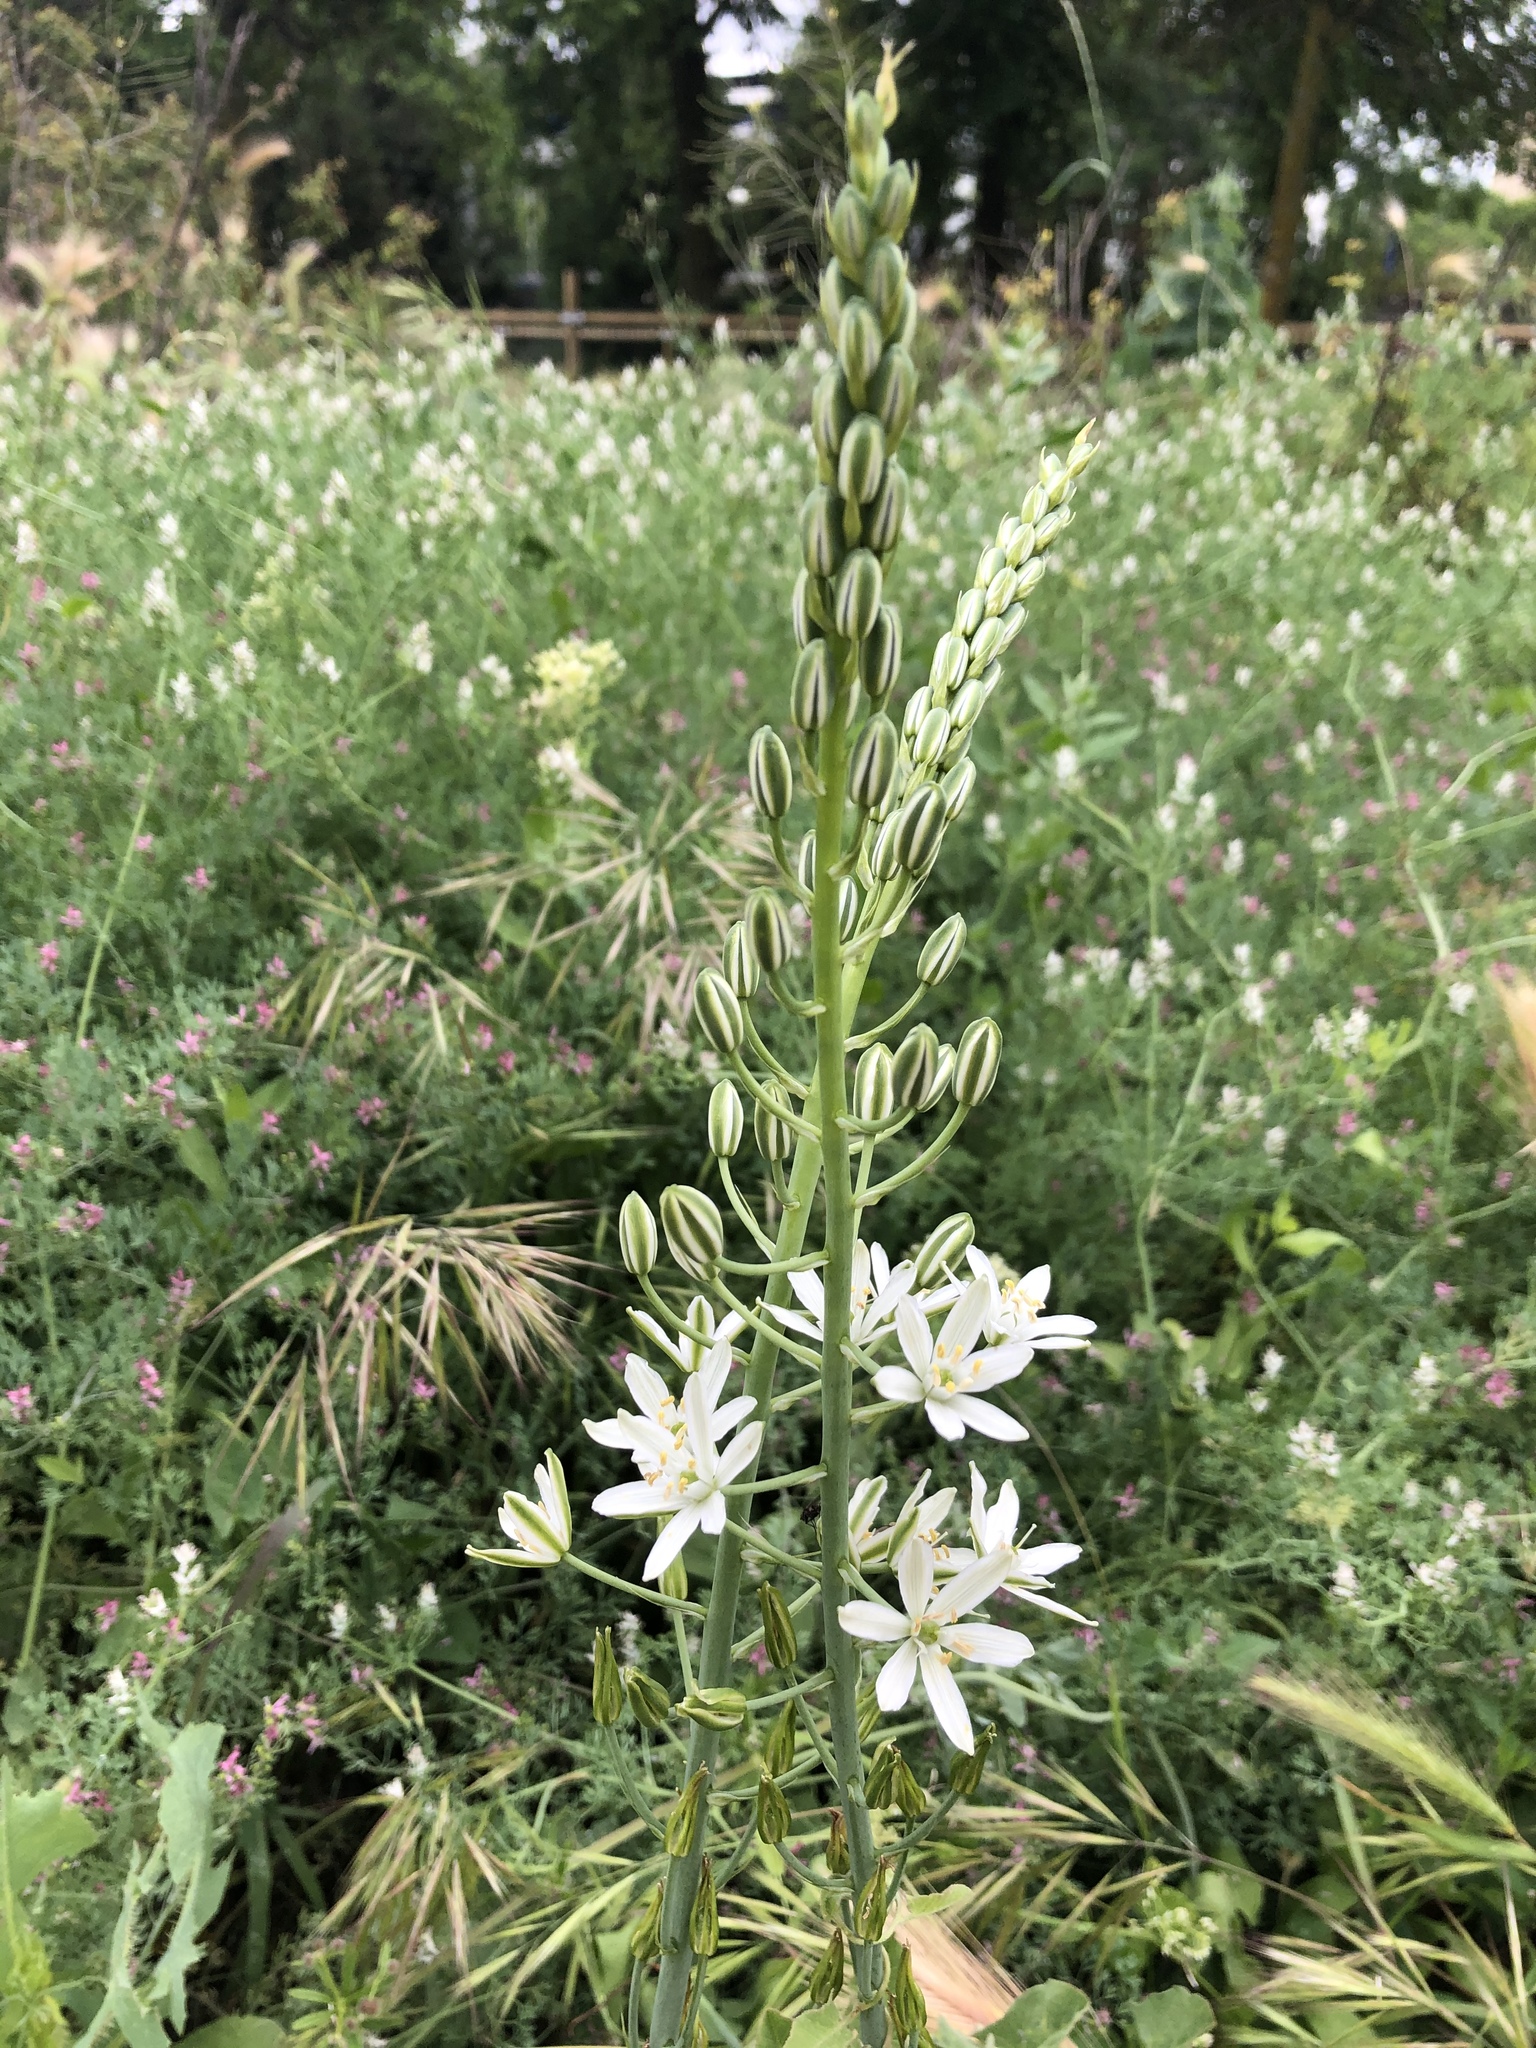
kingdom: Plantae
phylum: Tracheophyta
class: Liliopsida
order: Asparagales
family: Asparagaceae
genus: Ornithogalum
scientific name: Ornithogalum narbonense
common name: Bath-asparagus
